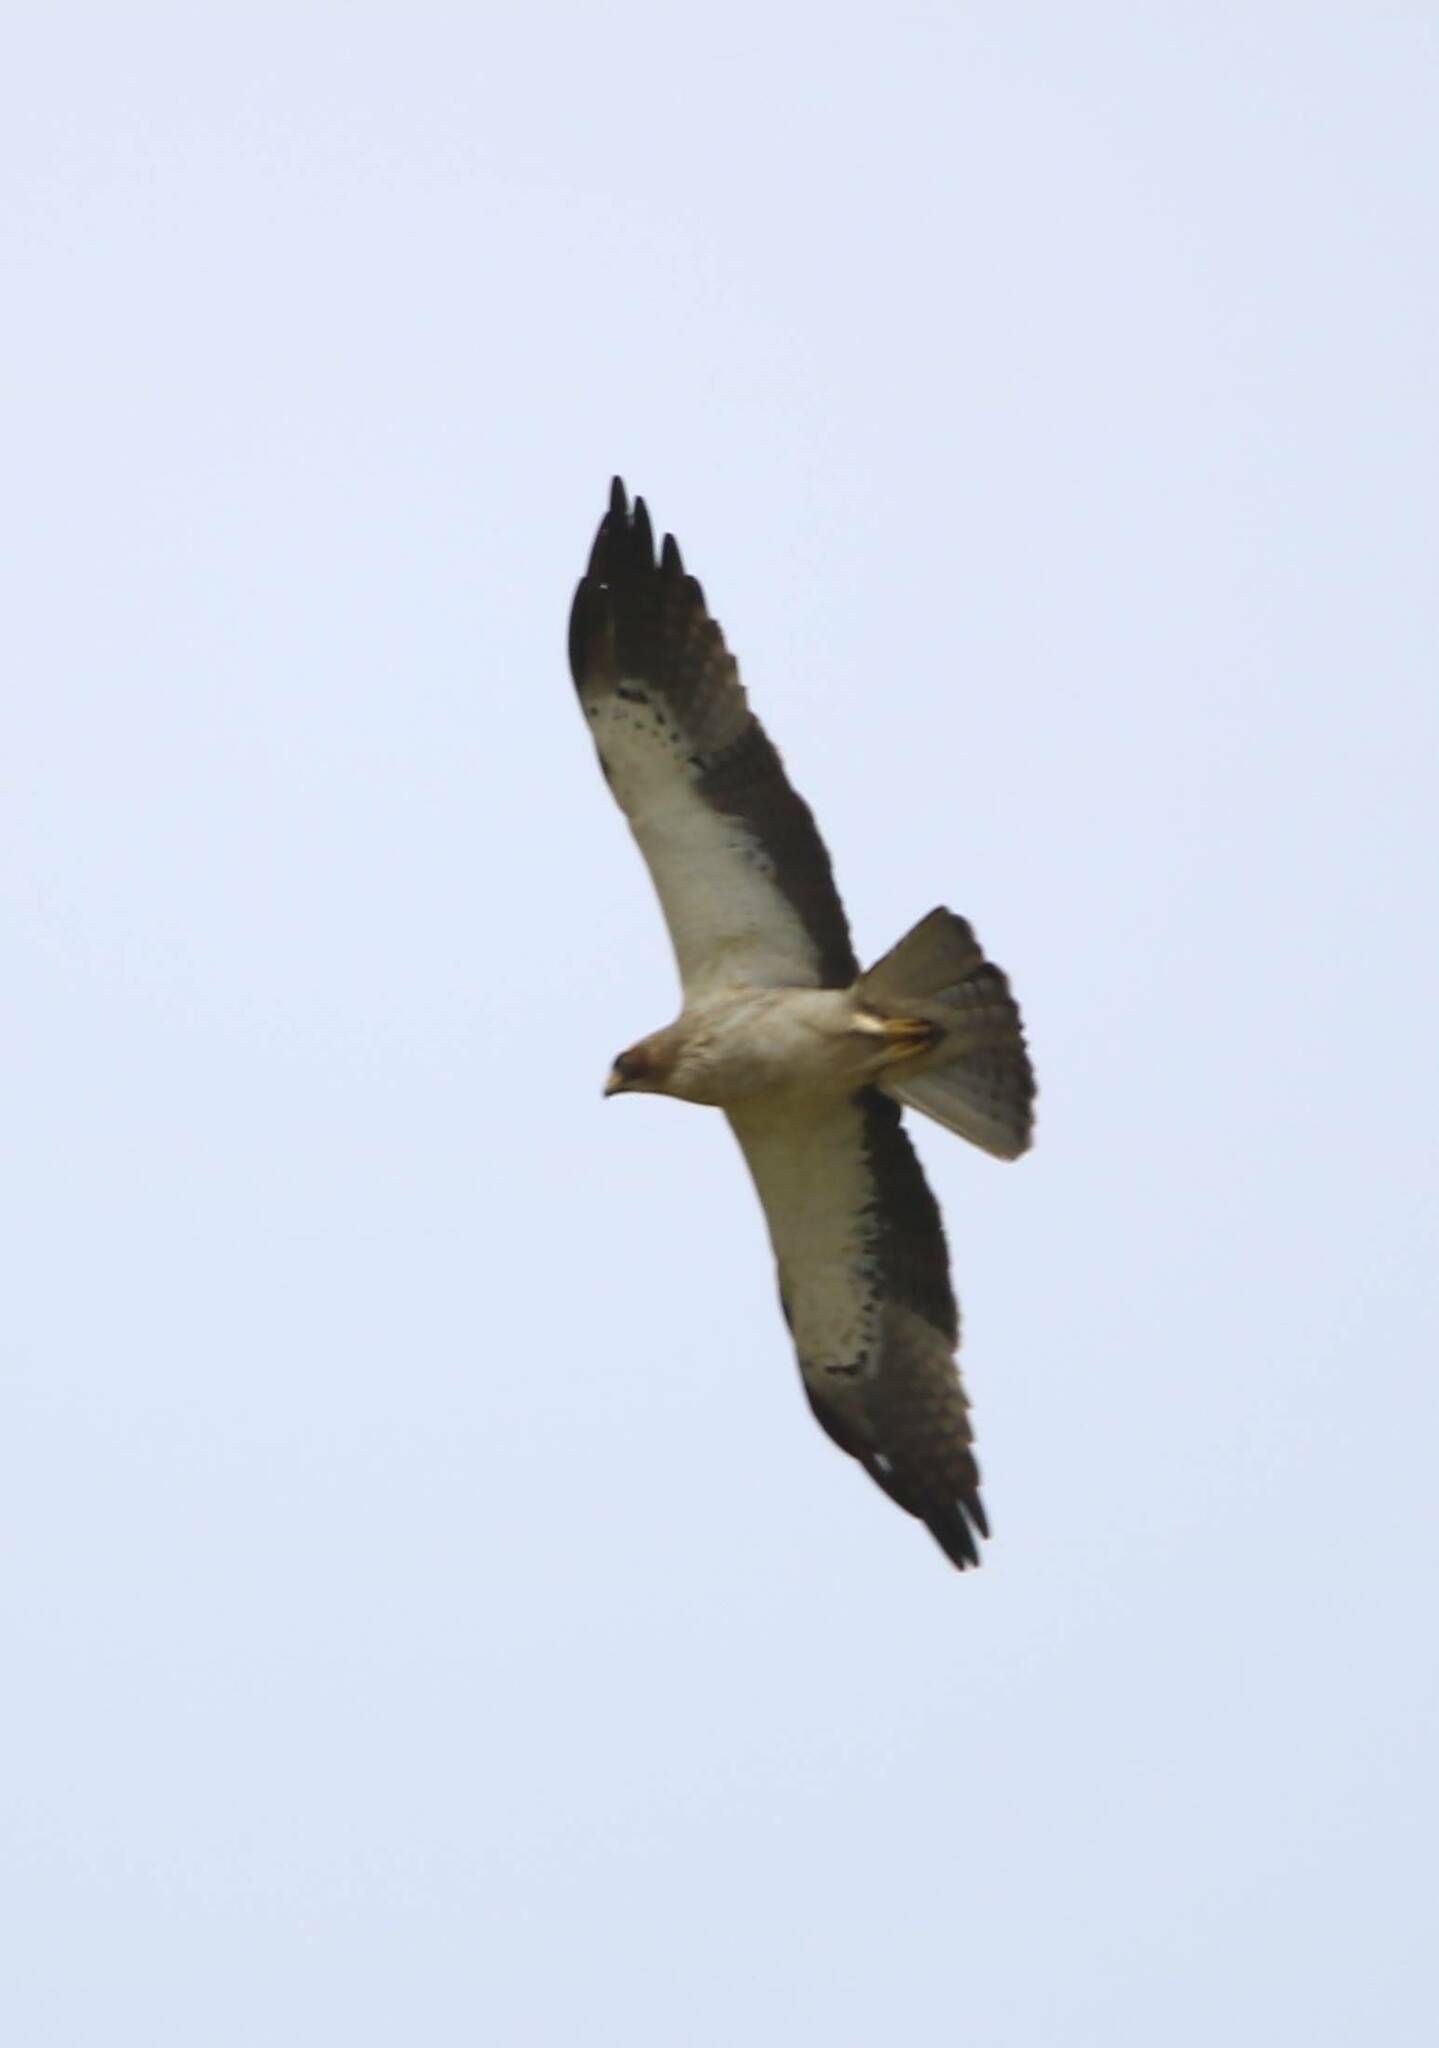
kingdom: Animalia
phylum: Chordata
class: Aves
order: Accipitriformes
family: Accipitridae
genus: Hieraaetus
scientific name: Hieraaetus pennatus
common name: Booted eagle
